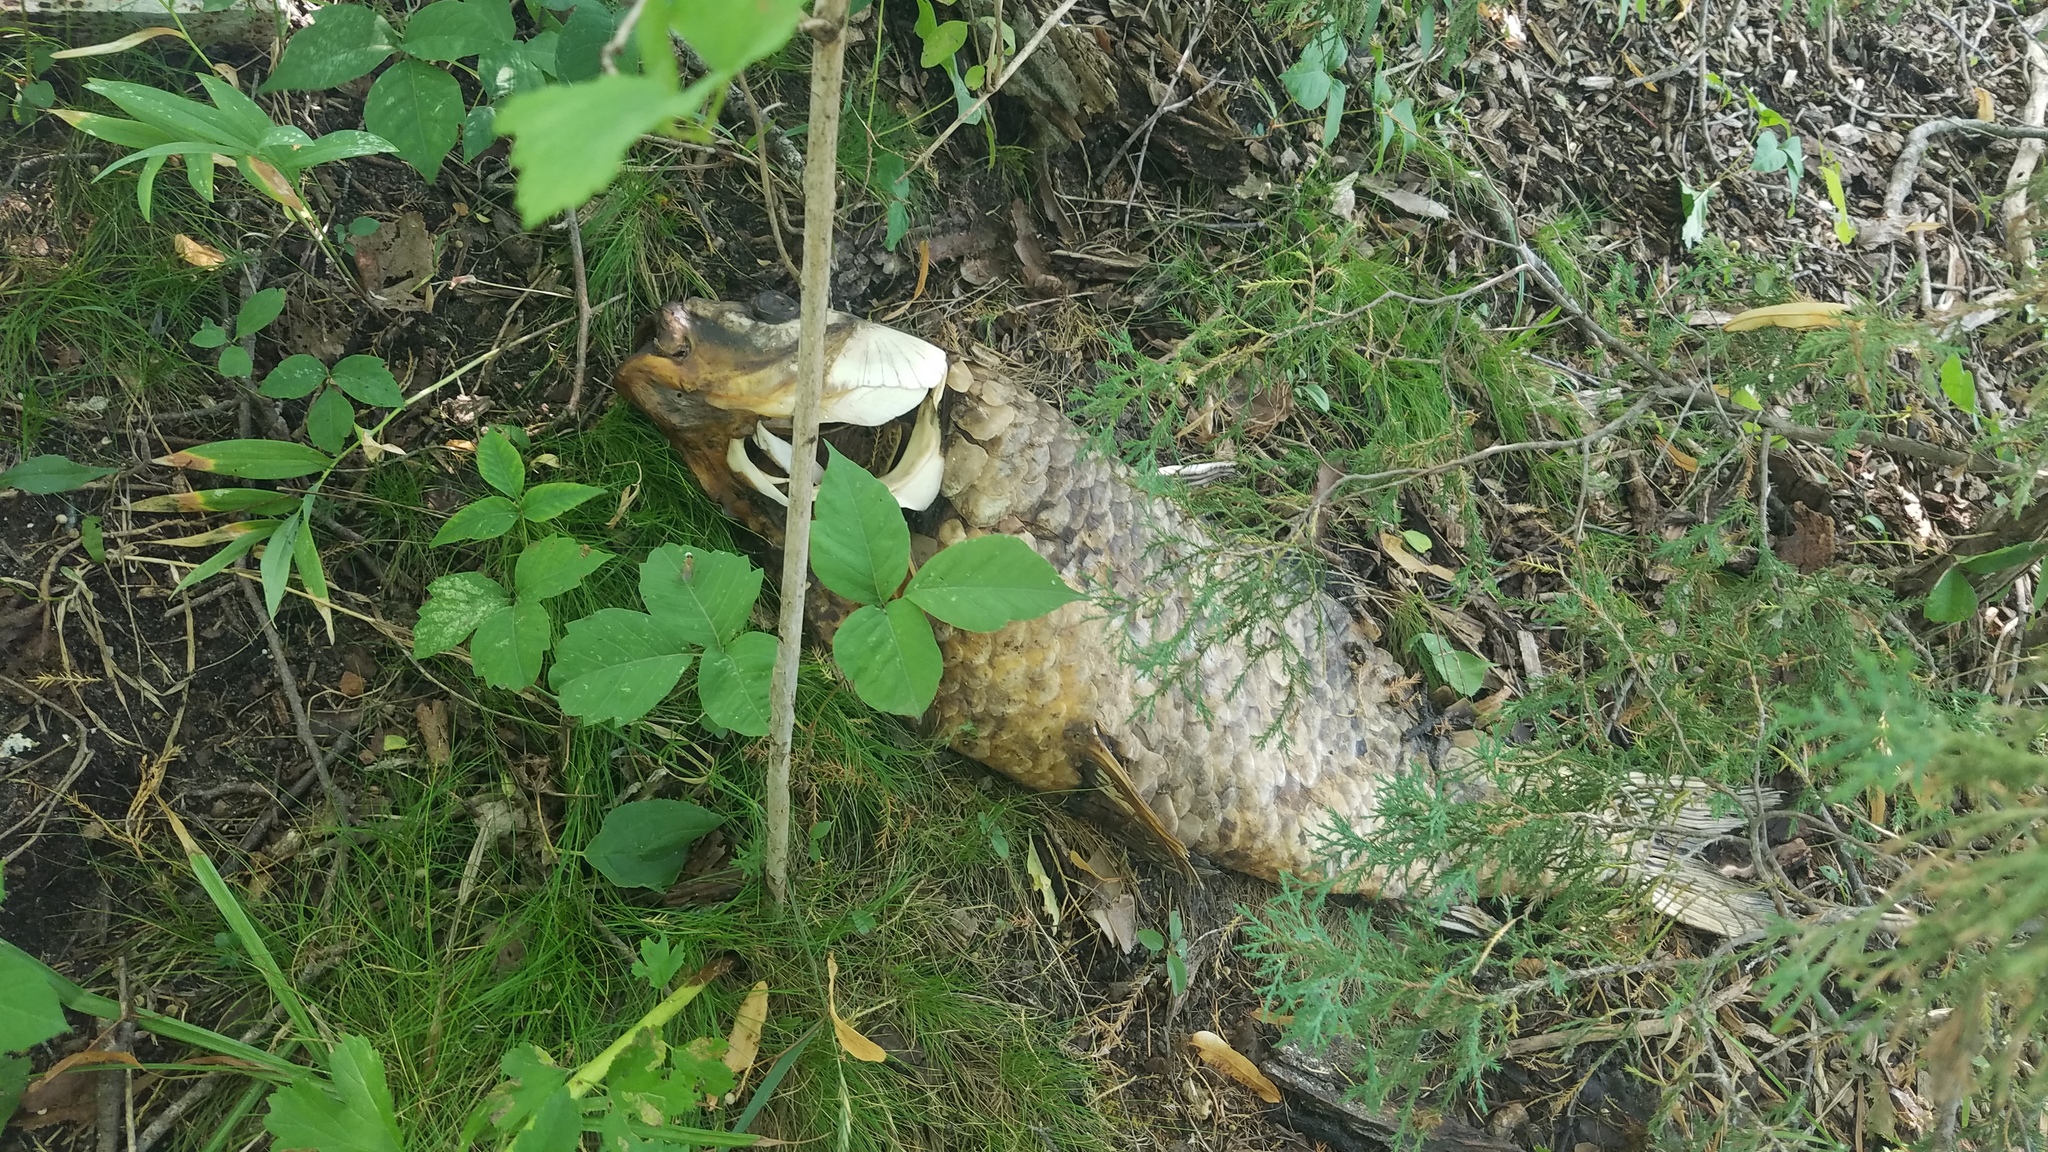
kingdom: Animalia
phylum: Chordata
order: Cypriniformes
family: Cyprinidae
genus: Cyprinus
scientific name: Cyprinus carpio
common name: Common carp
